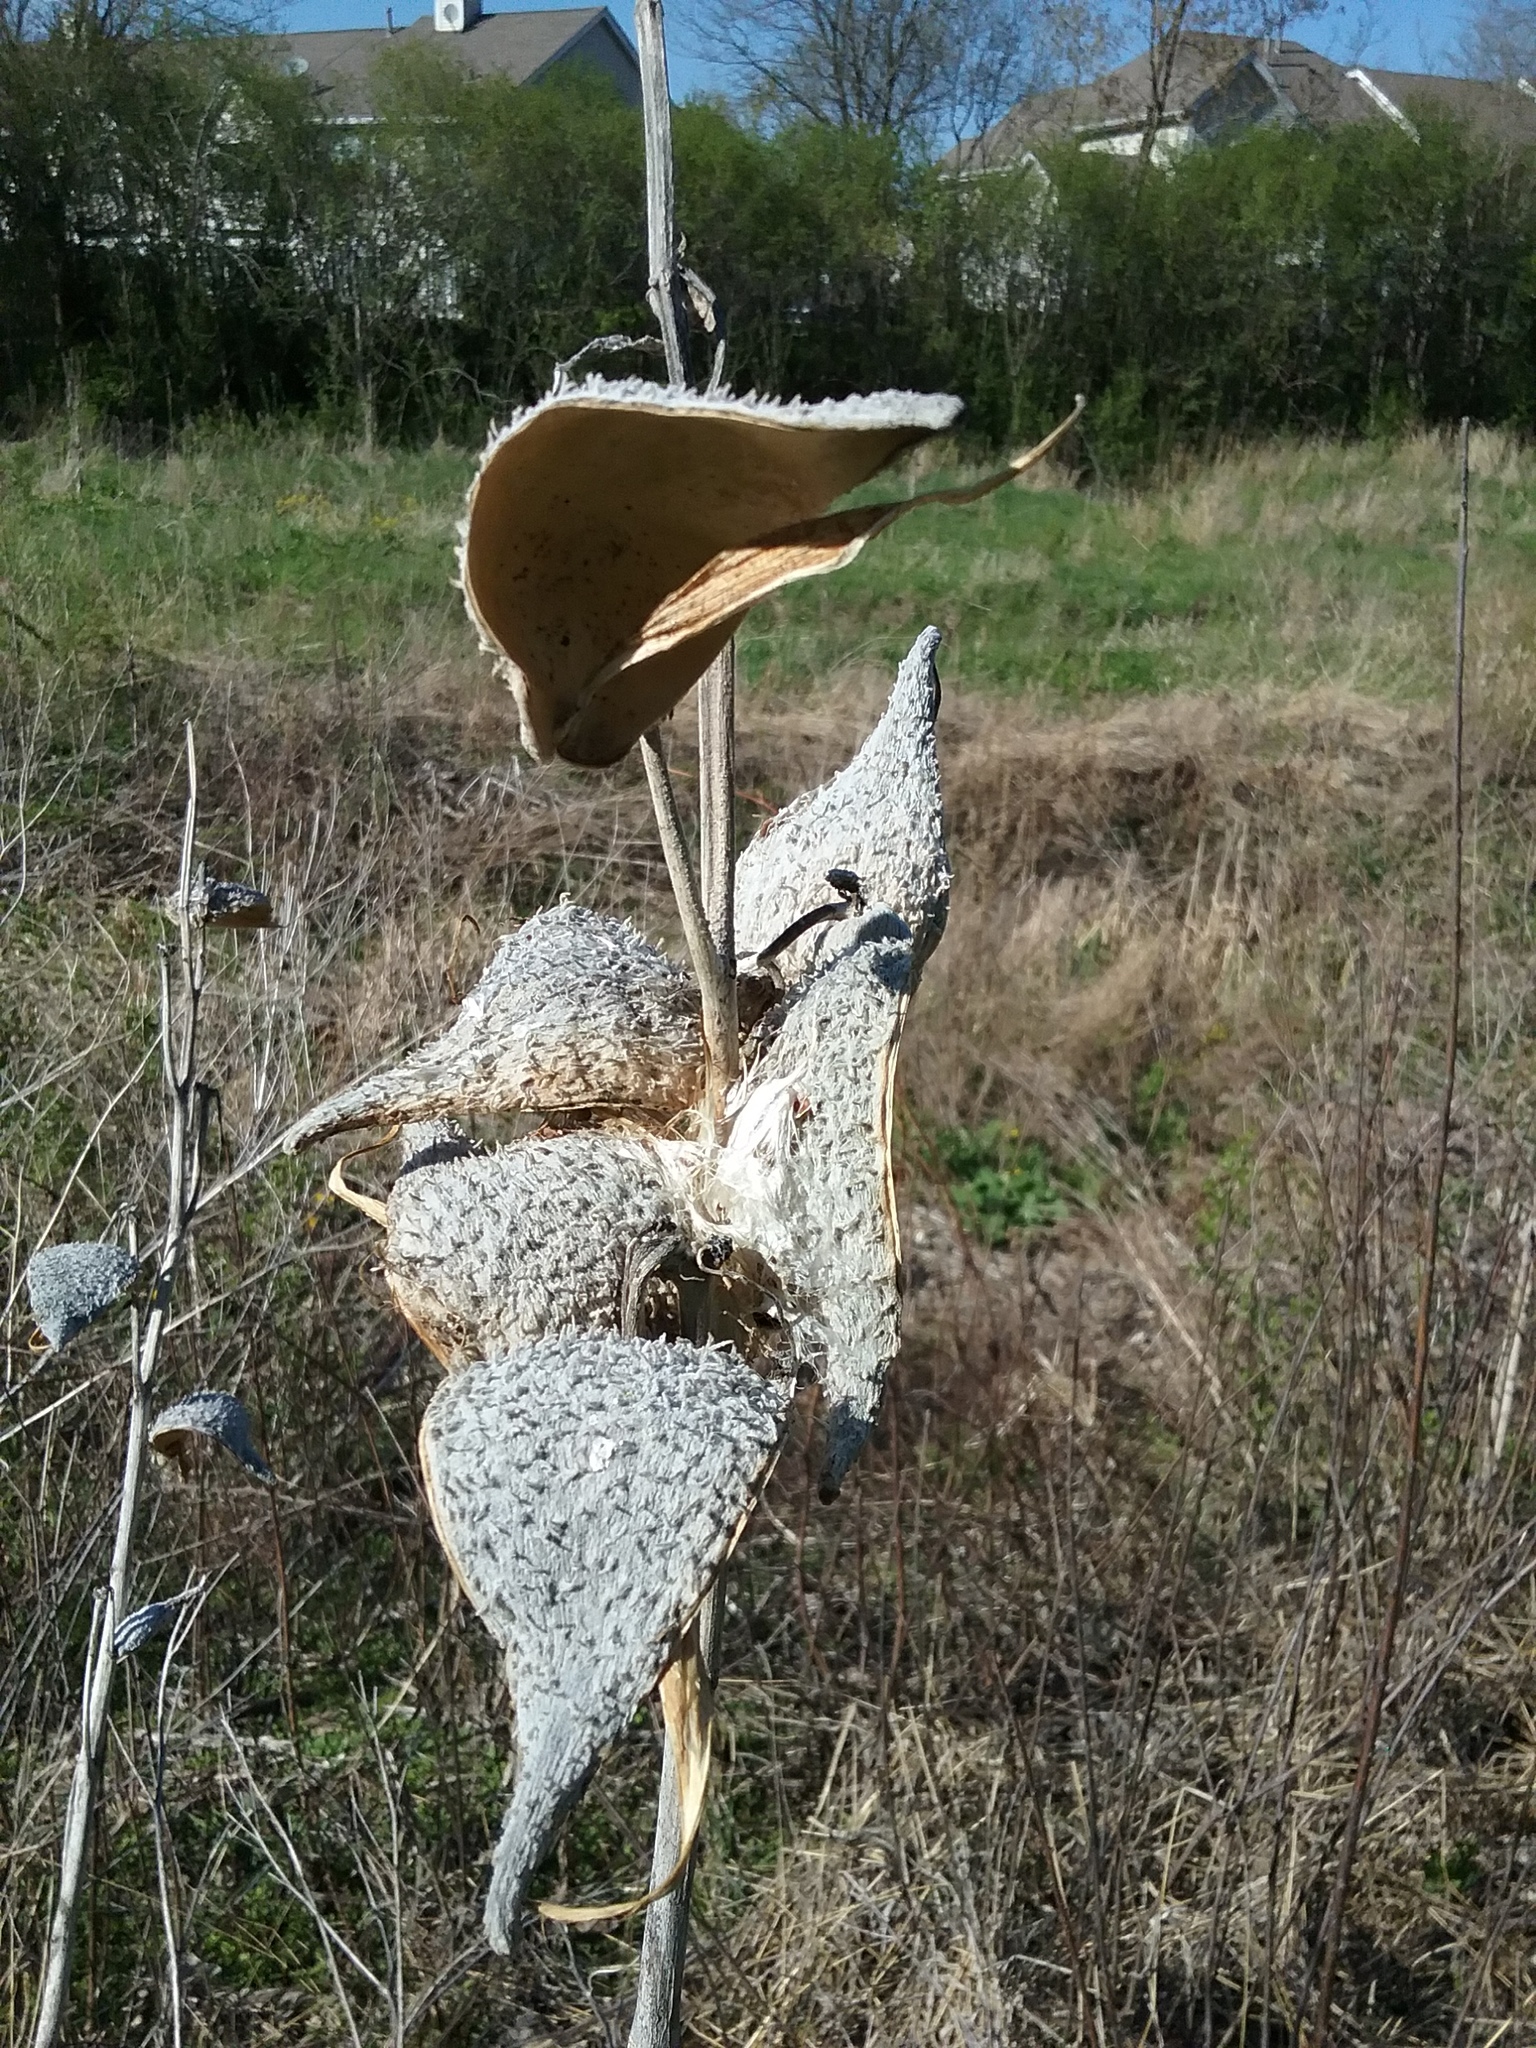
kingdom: Plantae
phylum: Tracheophyta
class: Magnoliopsida
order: Gentianales
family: Apocynaceae
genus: Asclepias
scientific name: Asclepias syriaca
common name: Common milkweed
